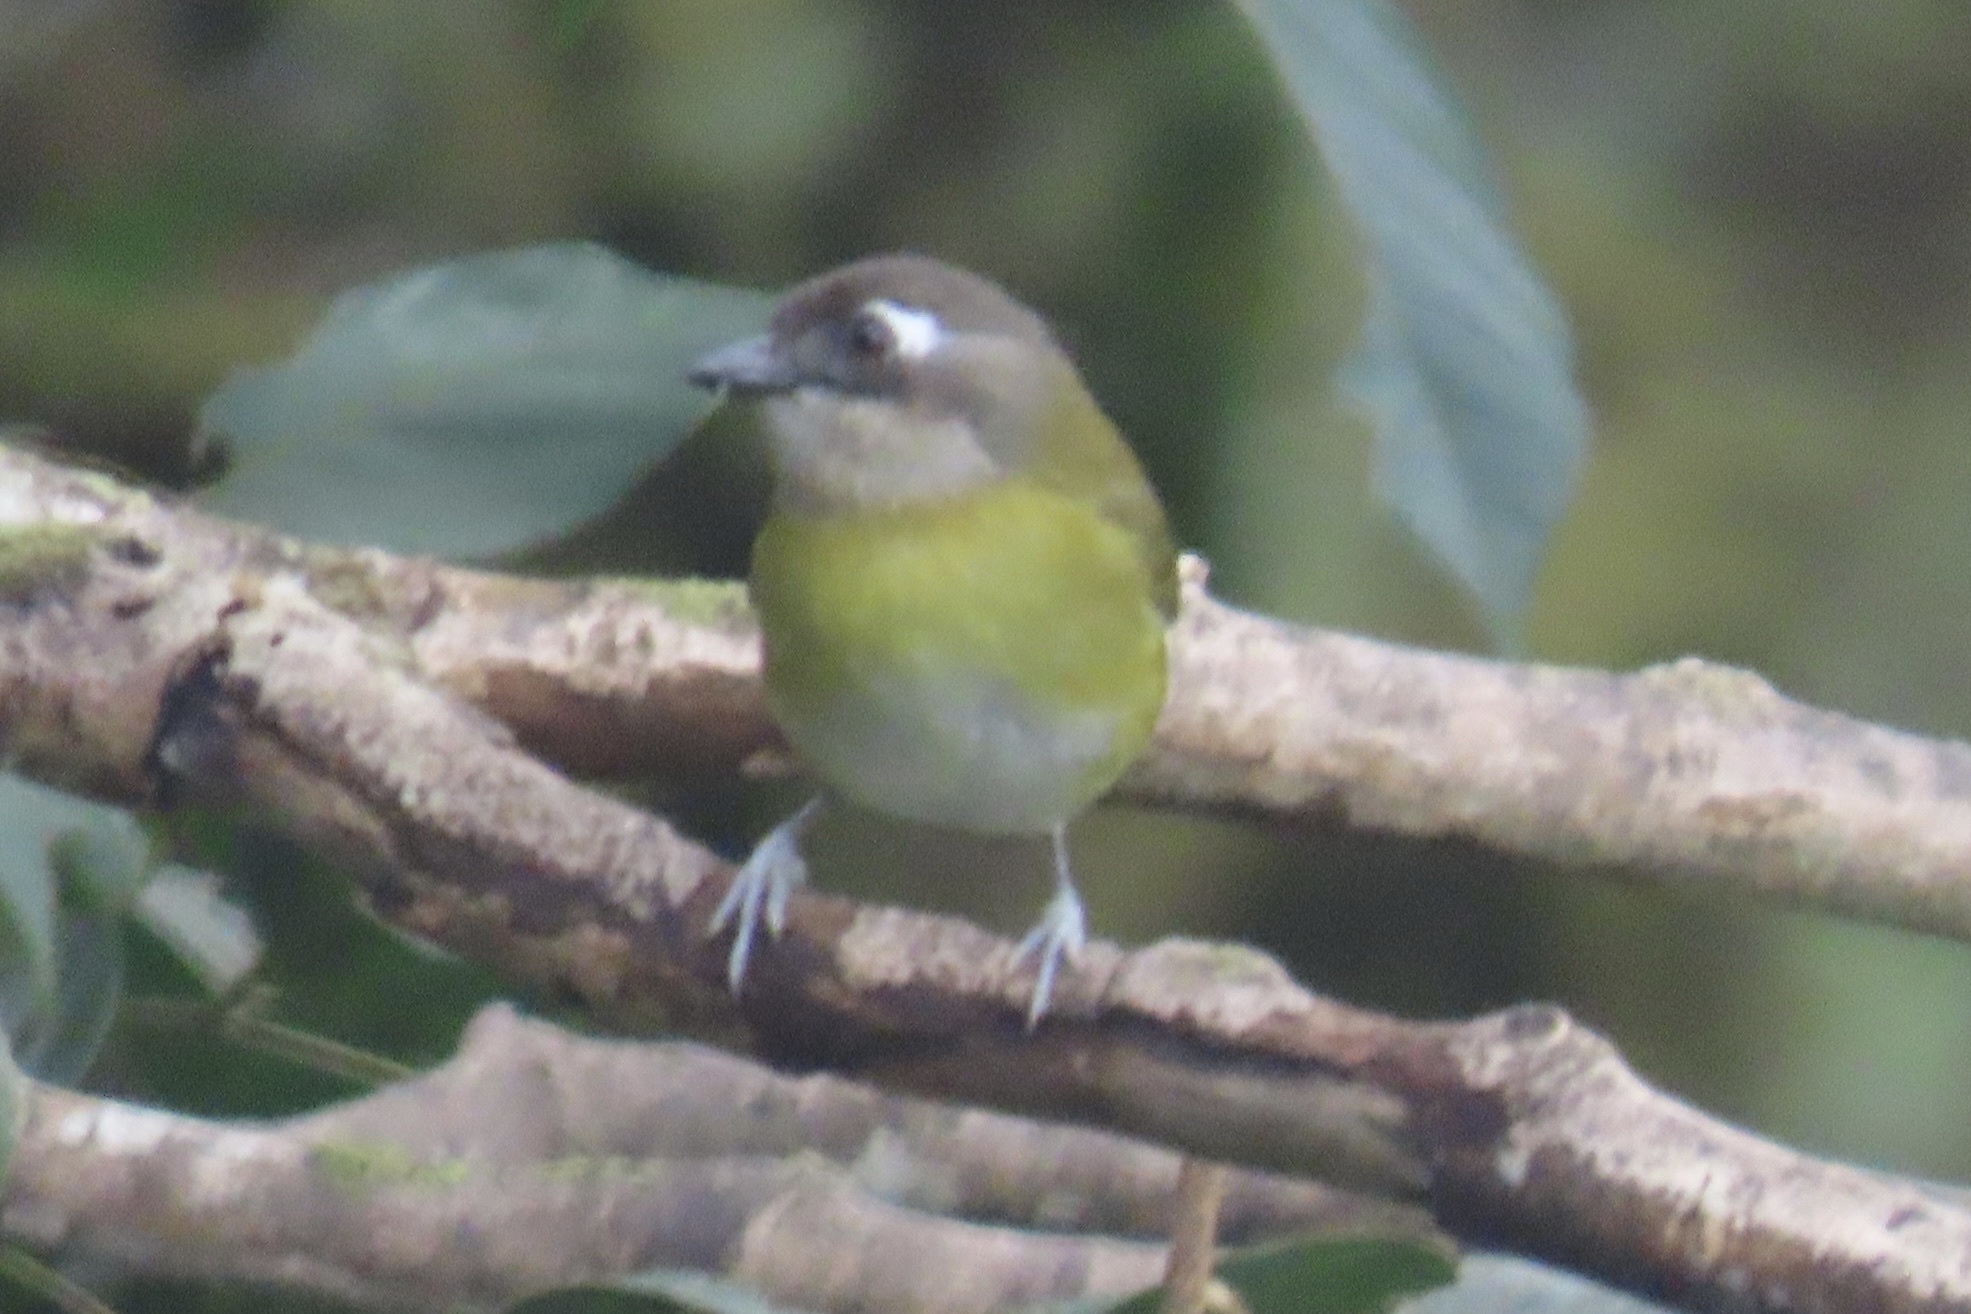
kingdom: Animalia
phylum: Chordata
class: Aves
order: Passeriformes
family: Passerellidae
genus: Chlorospingus
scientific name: Chlorospingus flavopectus
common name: Common chlorospingus
